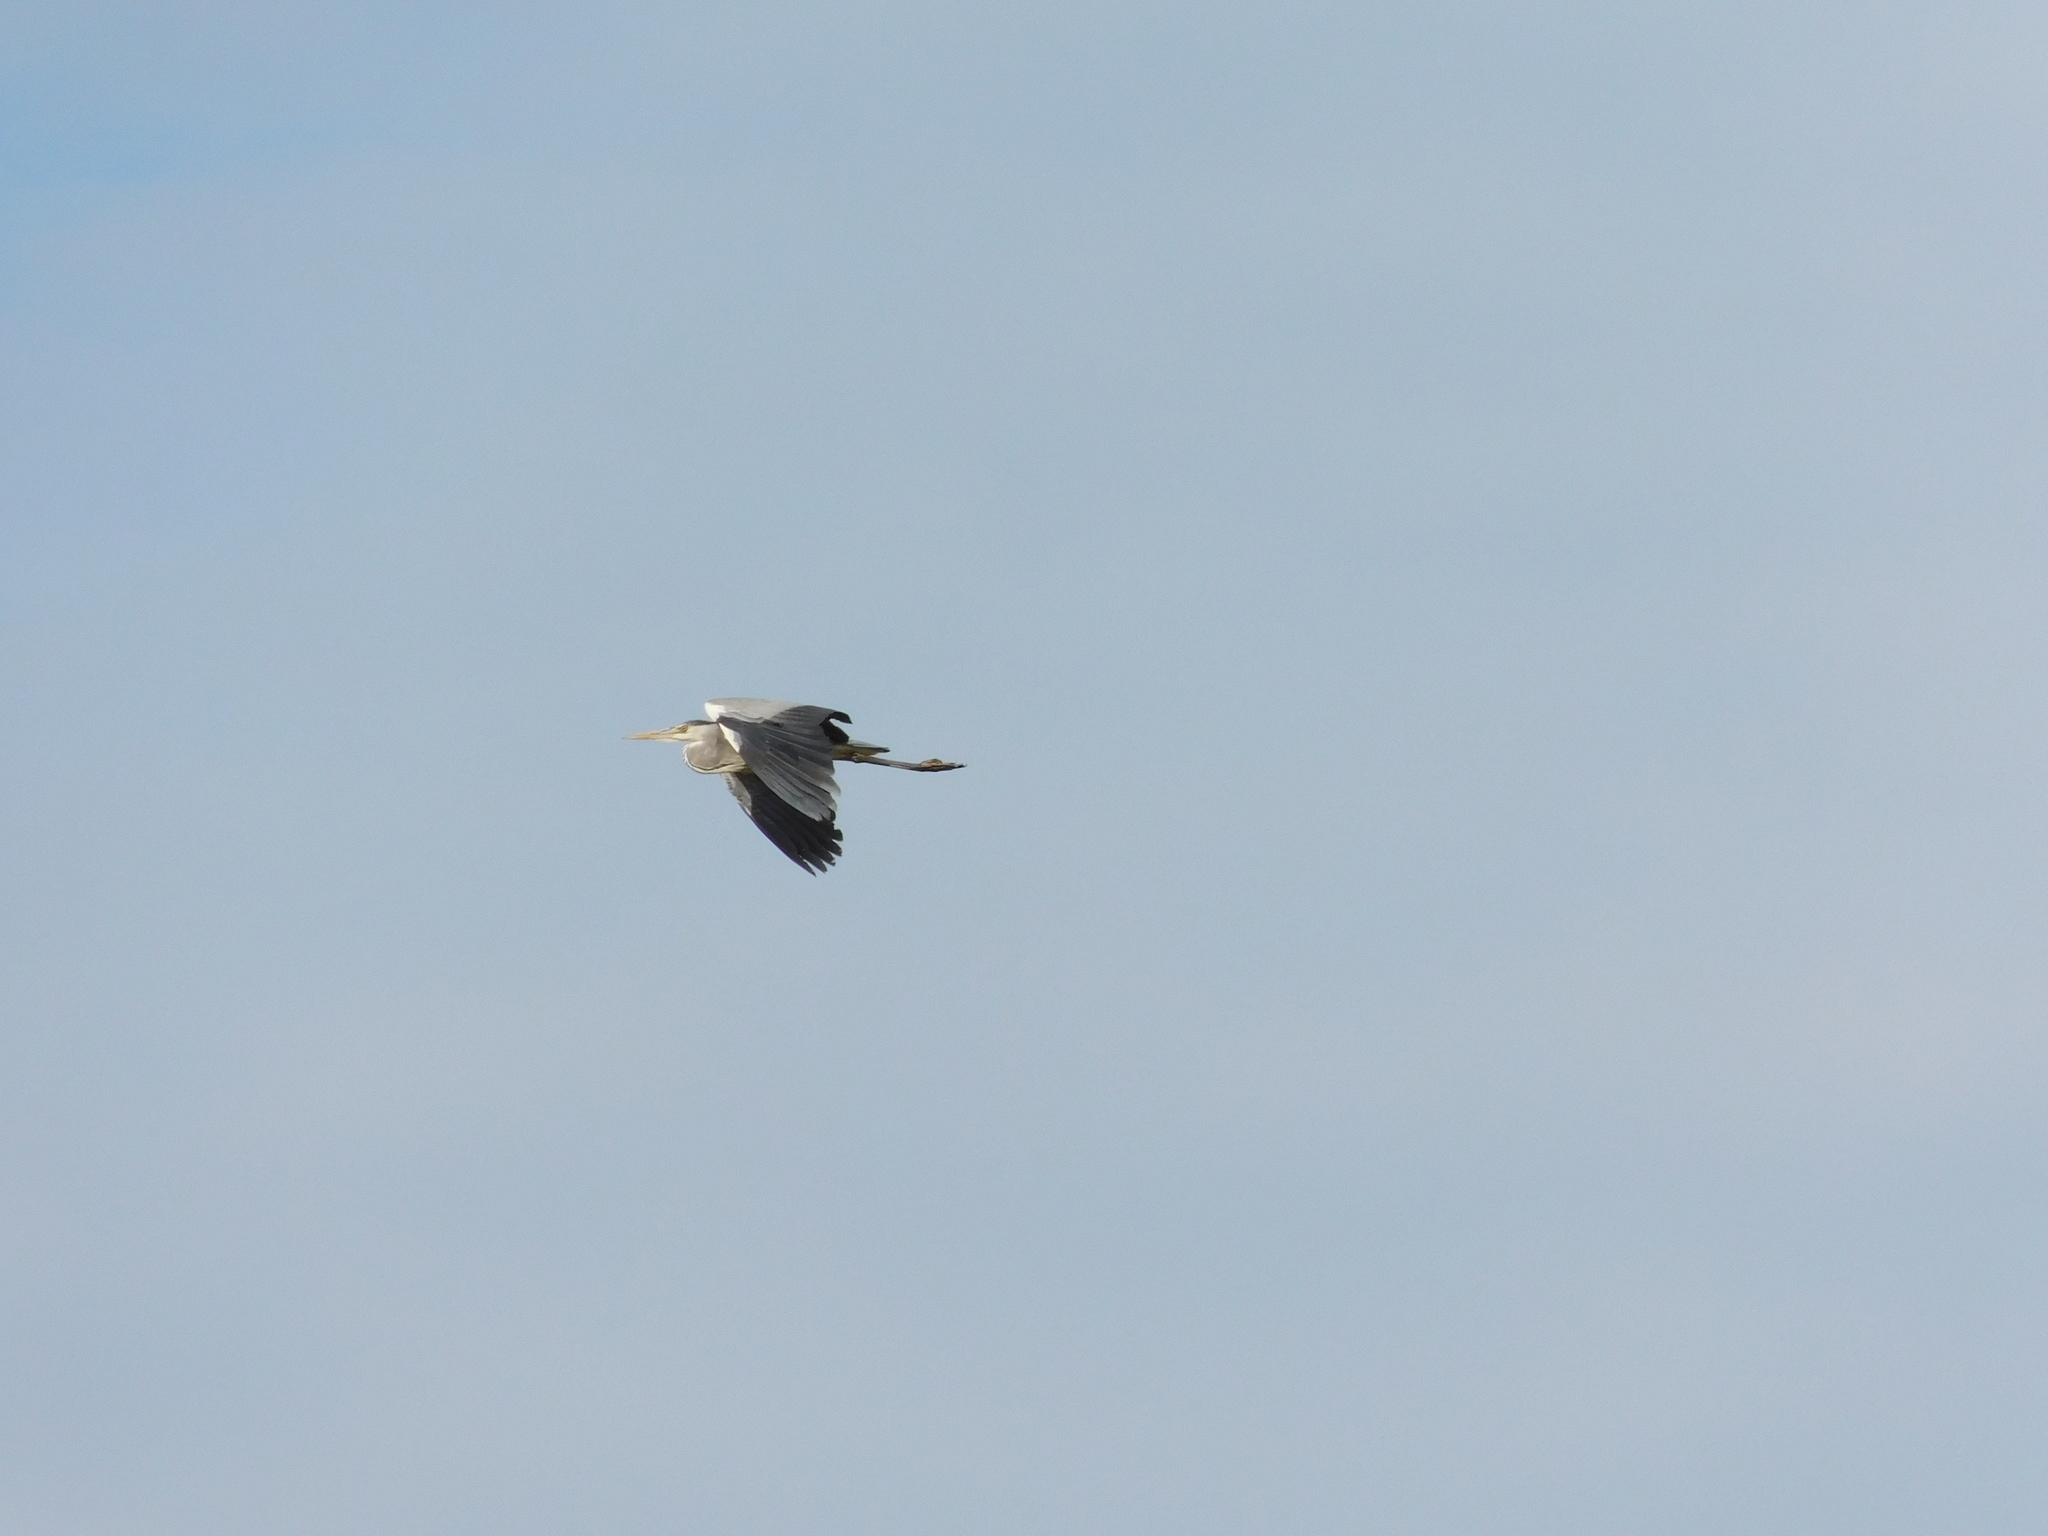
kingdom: Animalia
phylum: Chordata
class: Aves
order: Pelecaniformes
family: Ardeidae
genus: Ardea
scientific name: Ardea cinerea
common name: Grey heron
